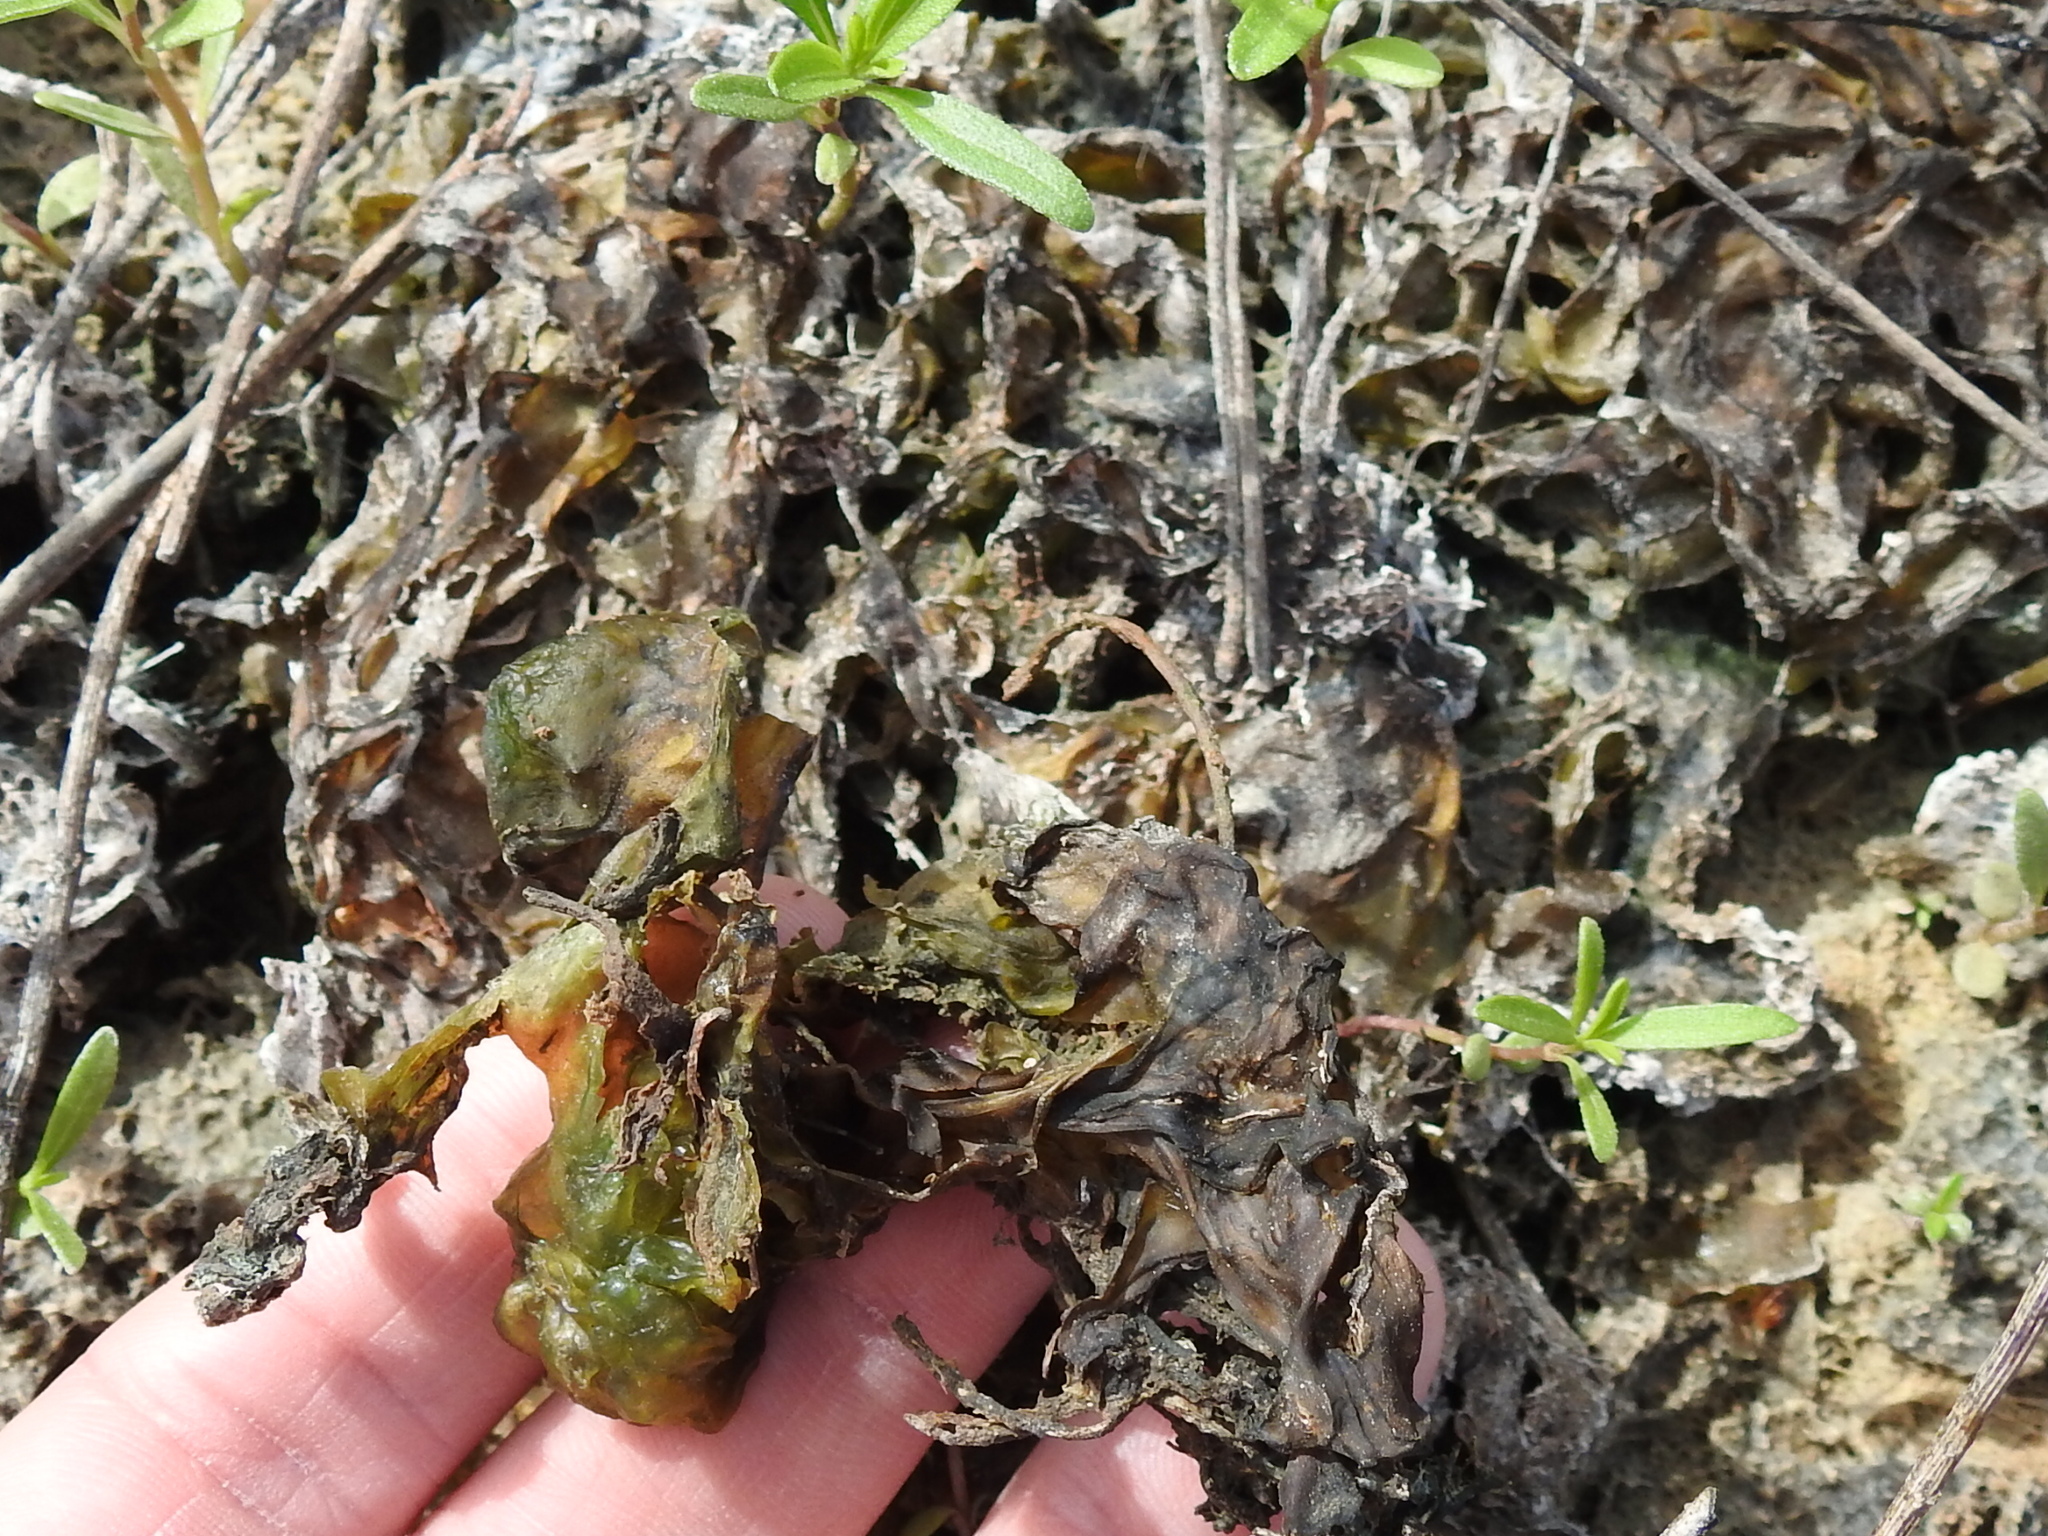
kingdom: Bacteria
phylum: Cyanobacteria
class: Cyanobacteriia
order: Cyanobacteriales
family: Nostocaceae
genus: Nostoc
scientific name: Nostoc commune
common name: Star jelly
